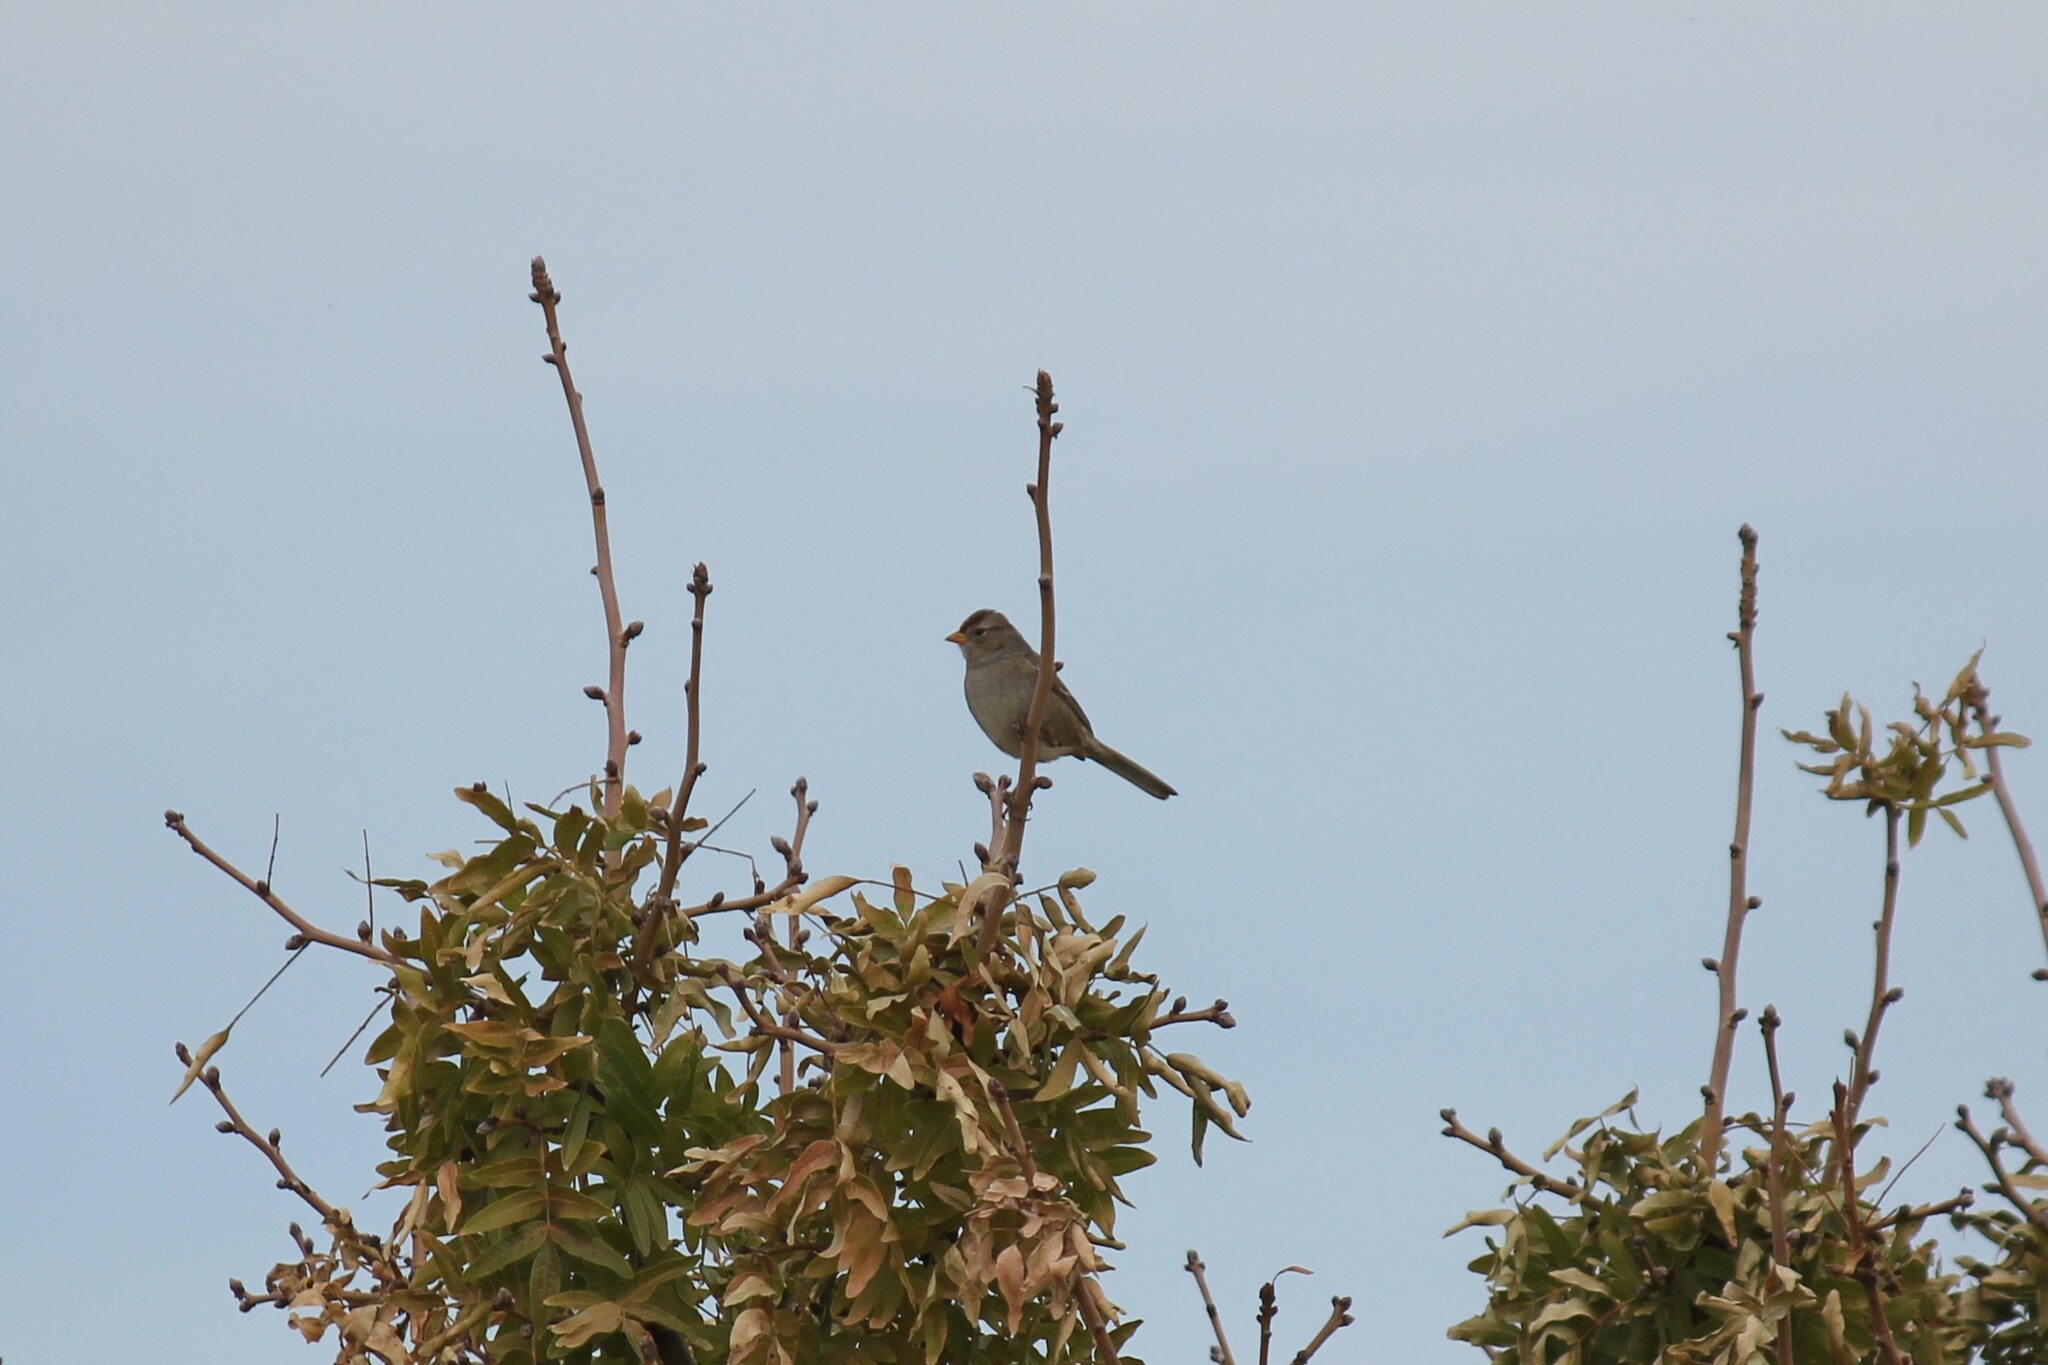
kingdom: Animalia
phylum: Chordata
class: Aves
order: Passeriformes
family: Passerellidae
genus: Zonotrichia
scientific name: Zonotrichia leucophrys
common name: White-crowned sparrow
